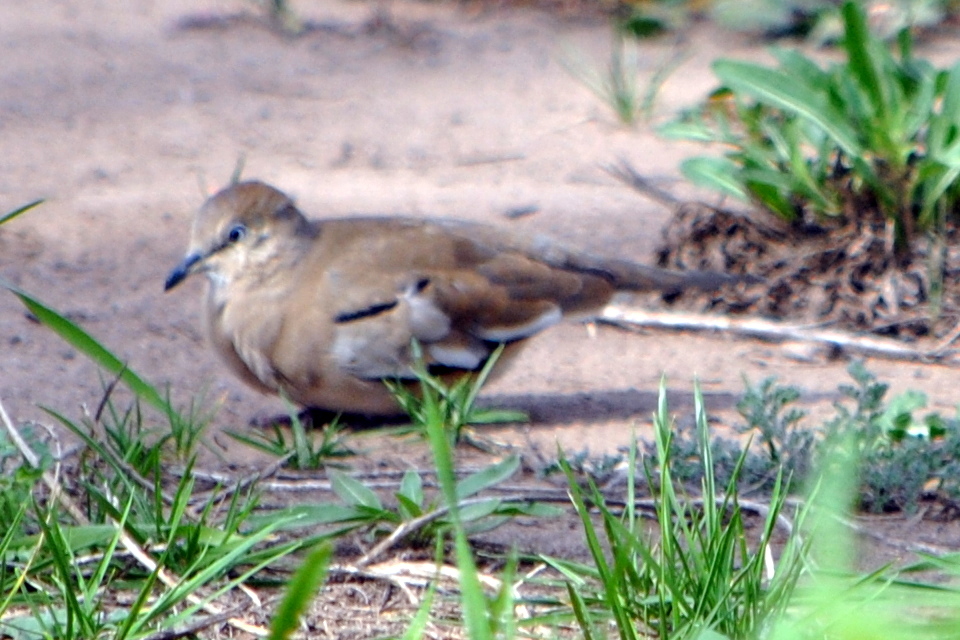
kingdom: Animalia
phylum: Chordata
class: Aves
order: Columbiformes
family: Columbidae
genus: Columbina
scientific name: Columbina picui
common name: Picui ground dove
